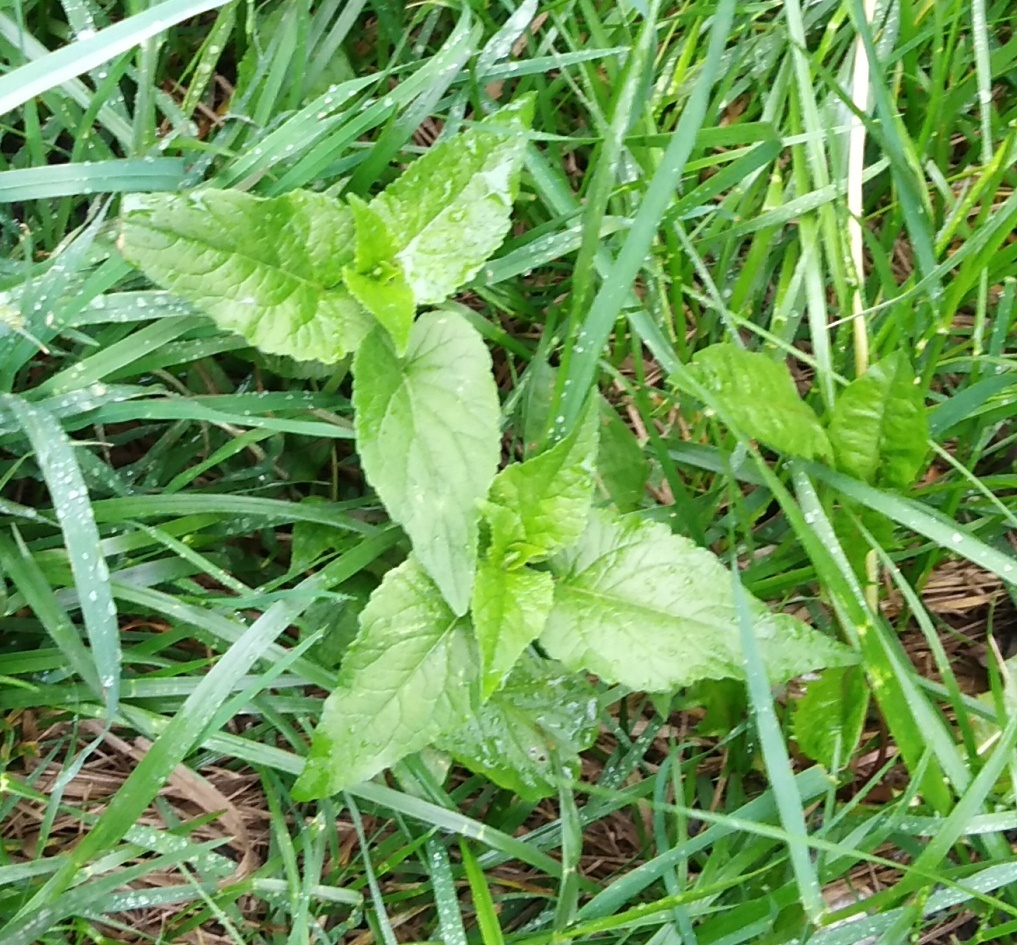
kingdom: Plantae
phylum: Tracheophyta
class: Magnoliopsida
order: Asterales
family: Campanulaceae
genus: Campanula
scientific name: Campanula rapunculoides
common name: Creeping bellflower
